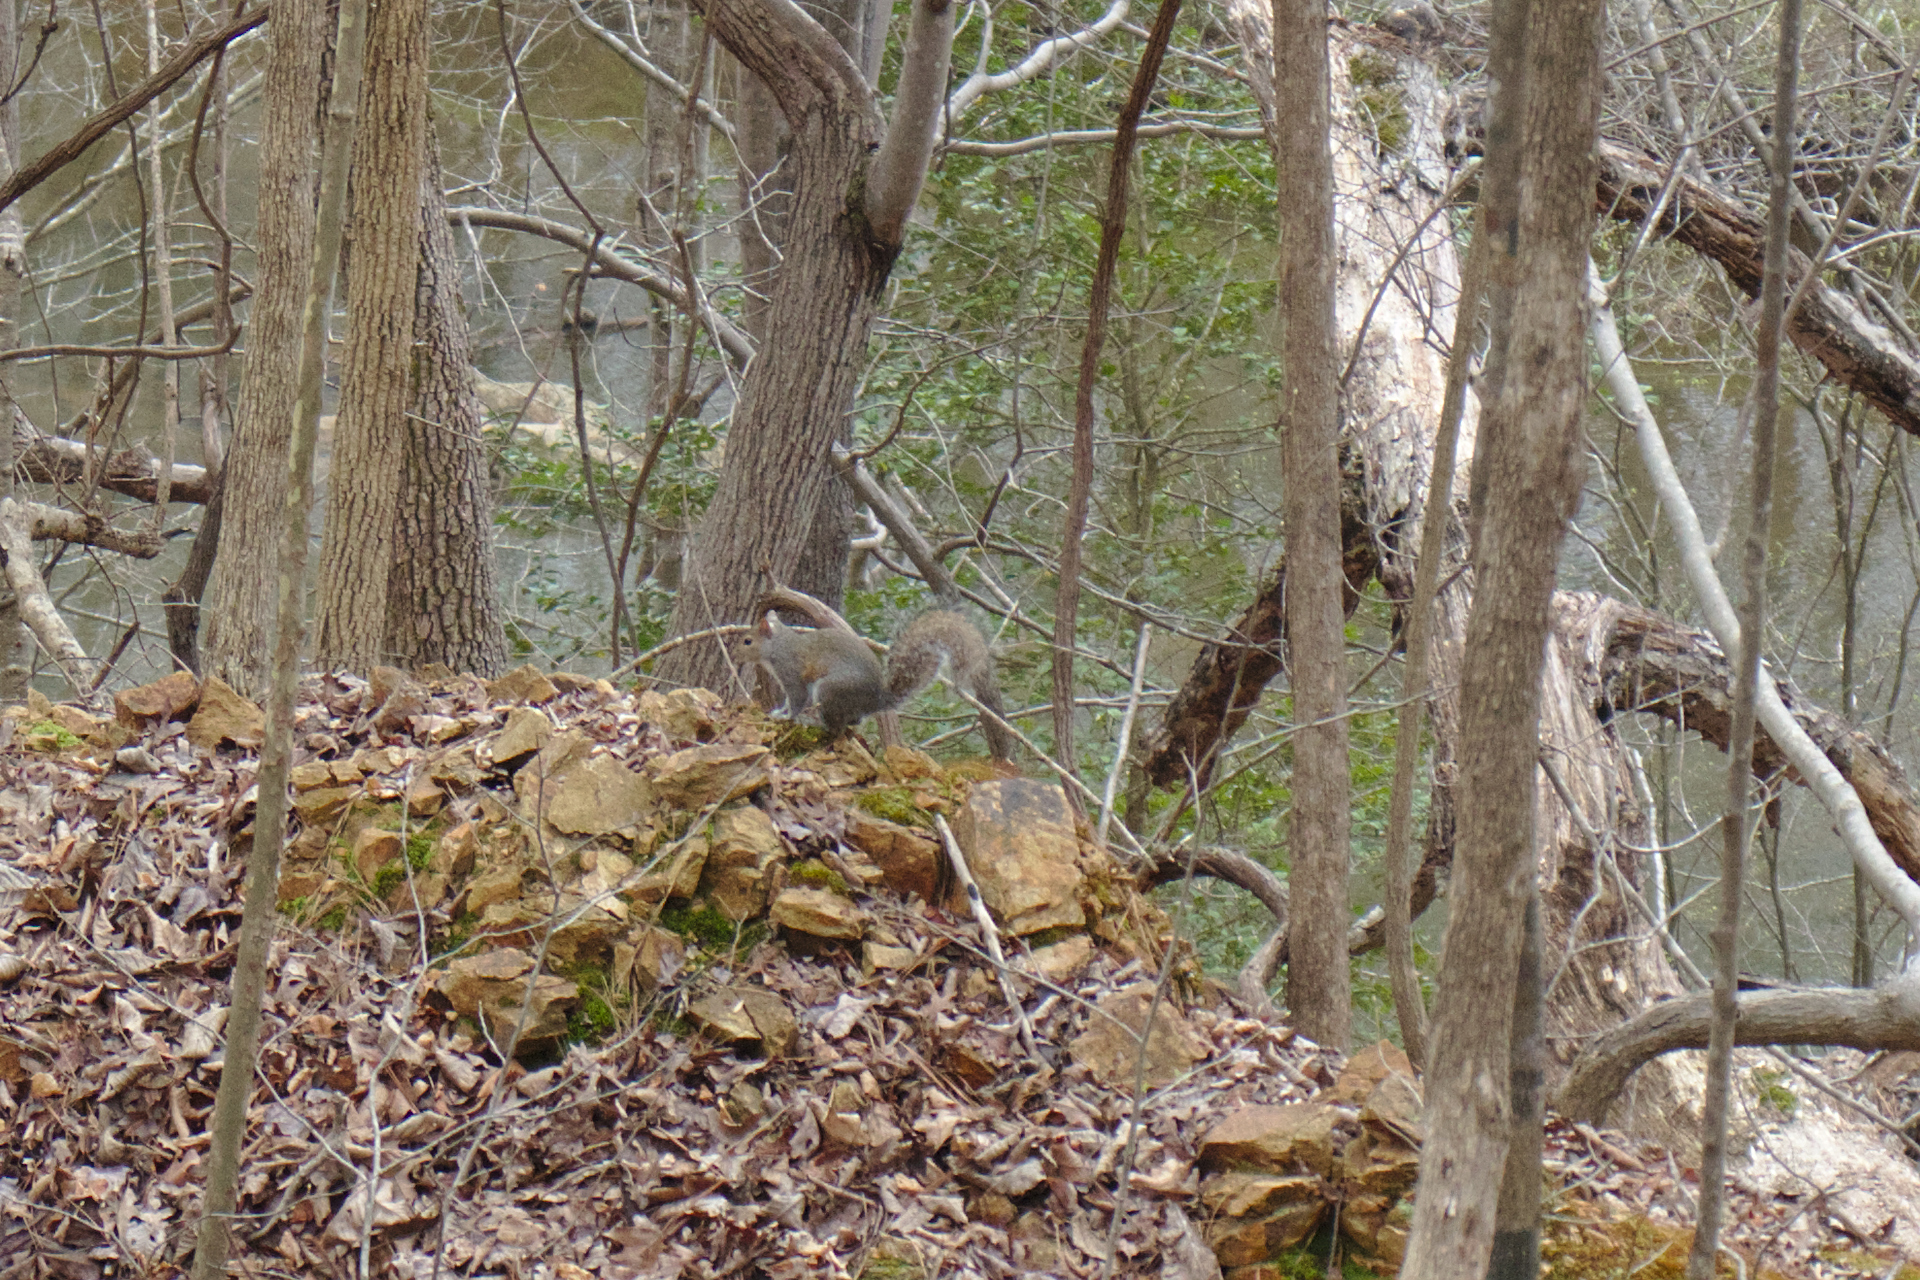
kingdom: Animalia
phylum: Chordata
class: Mammalia
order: Rodentia
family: Sciuridae
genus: Sciurus
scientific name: Sciurus carolinensis
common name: Eastern gray squirrel
